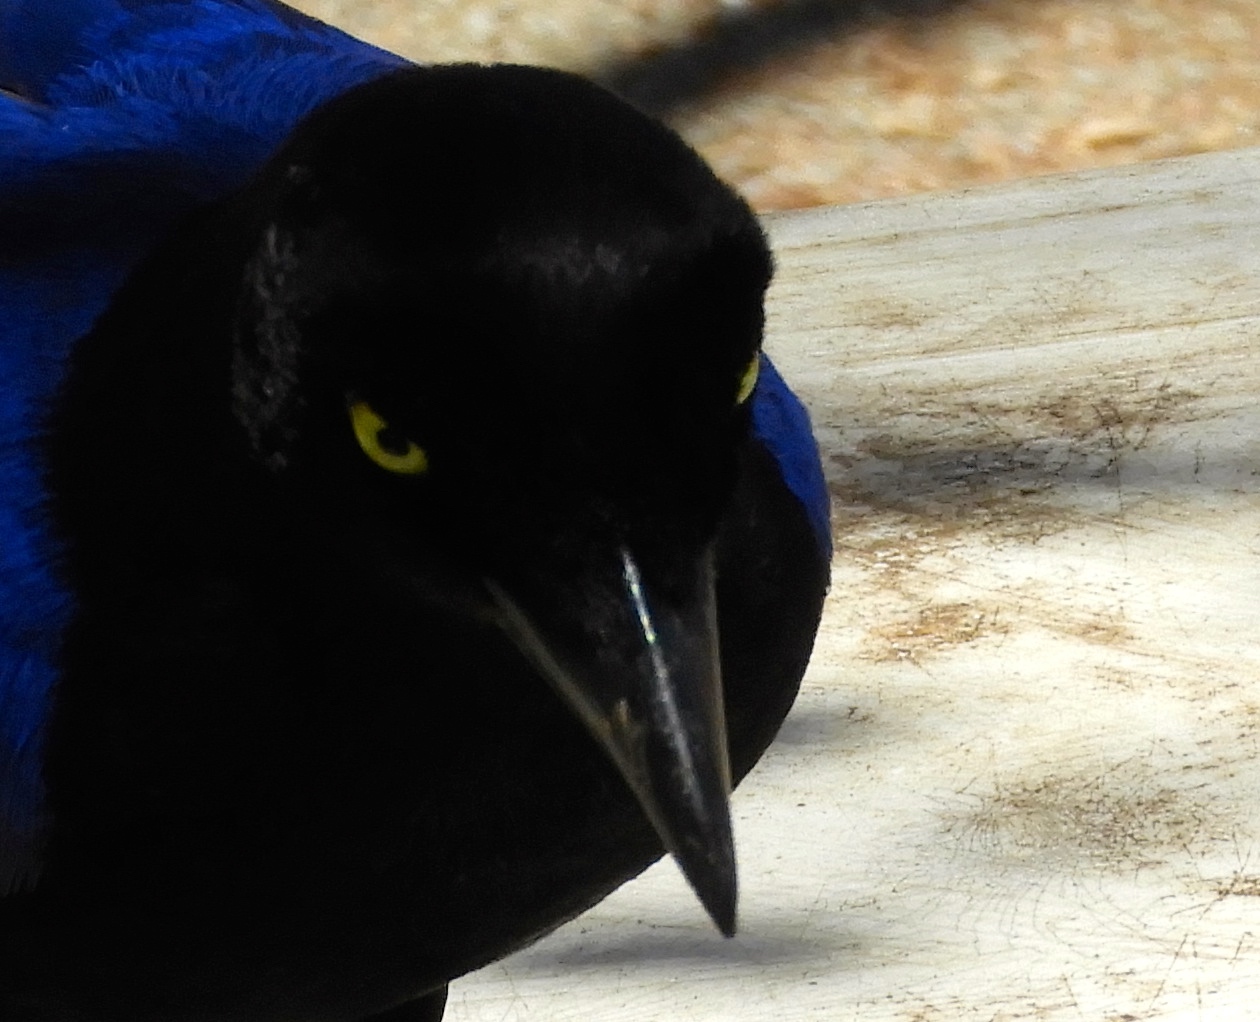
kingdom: Animalia
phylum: Chordata
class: Aves
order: Passeriformes
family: Corvidae
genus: Cyanocorax
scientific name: Cyanocorax beecheii
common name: Purplish-backed jay
